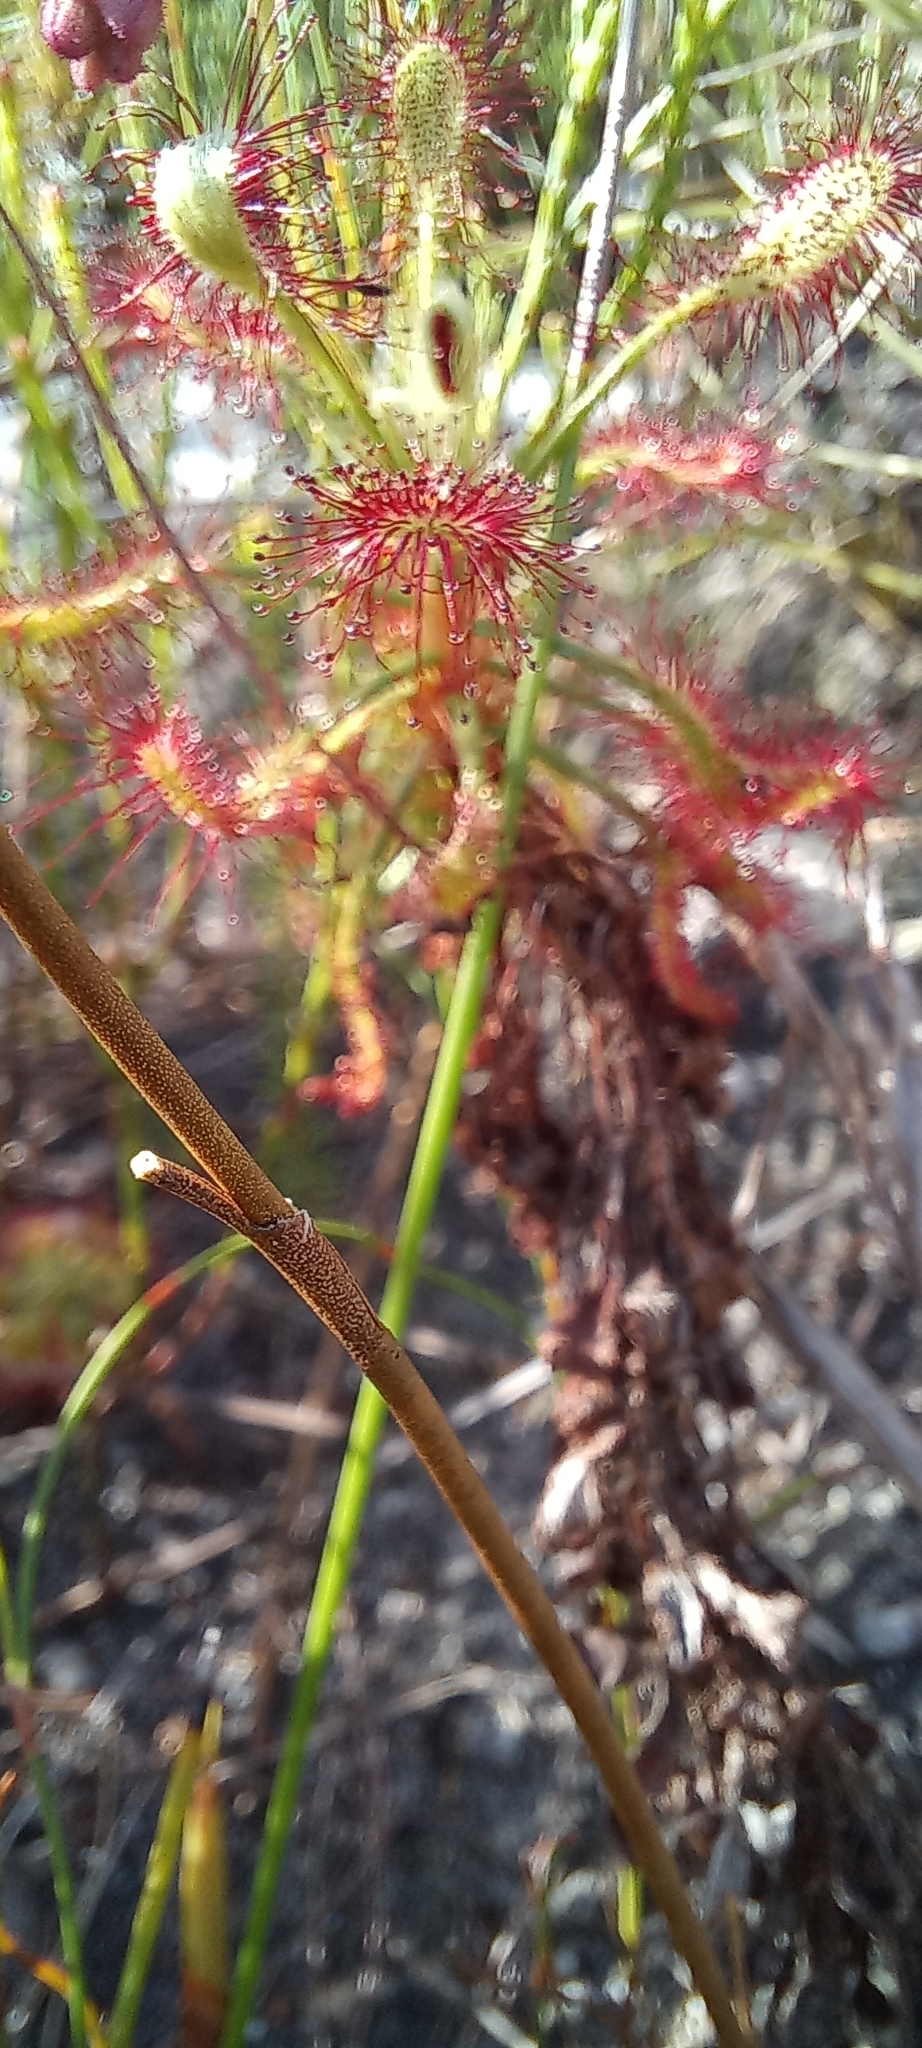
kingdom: Plantae
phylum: Tracheophyta
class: Magnoliopsida
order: Caryophyllales
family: Droseraceae
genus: Drosera
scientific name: Drosera glabripes
